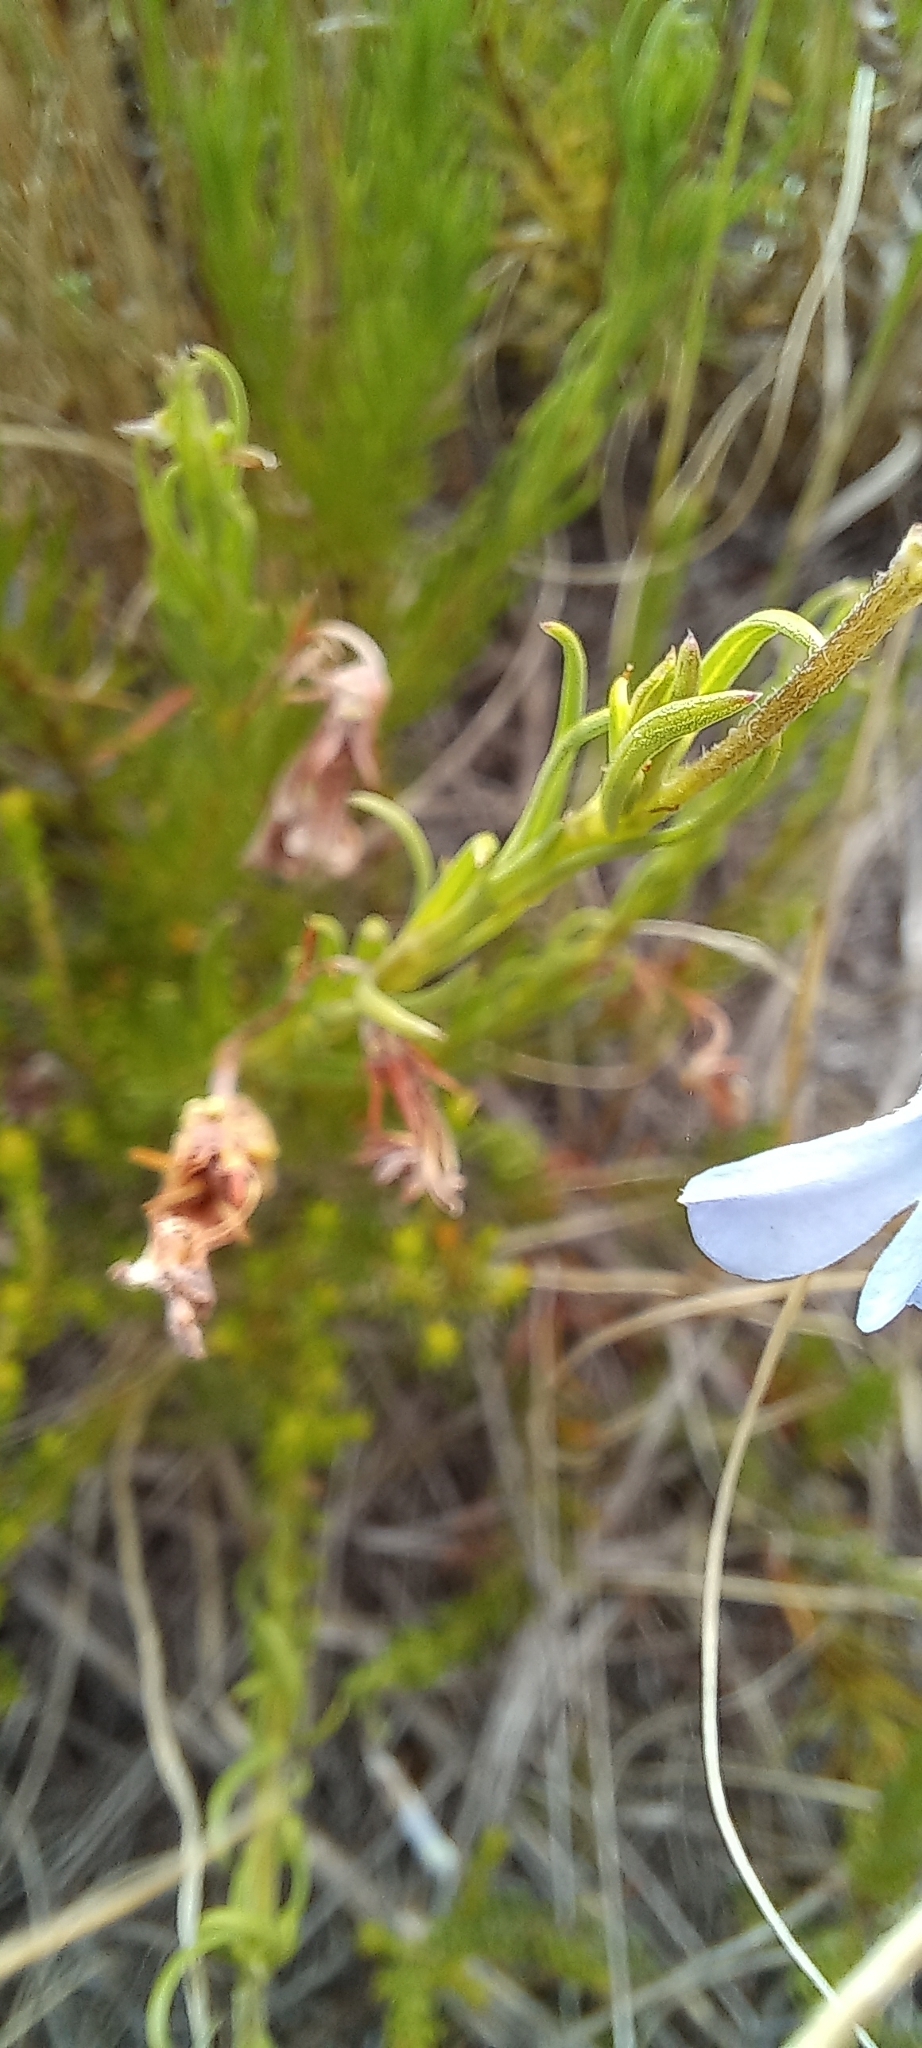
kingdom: Plantae
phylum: Tracheophyta
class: Magnoliopsida
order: Asterales
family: Campanulaceae
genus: Lobelia
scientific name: Lobelia pinifolia
